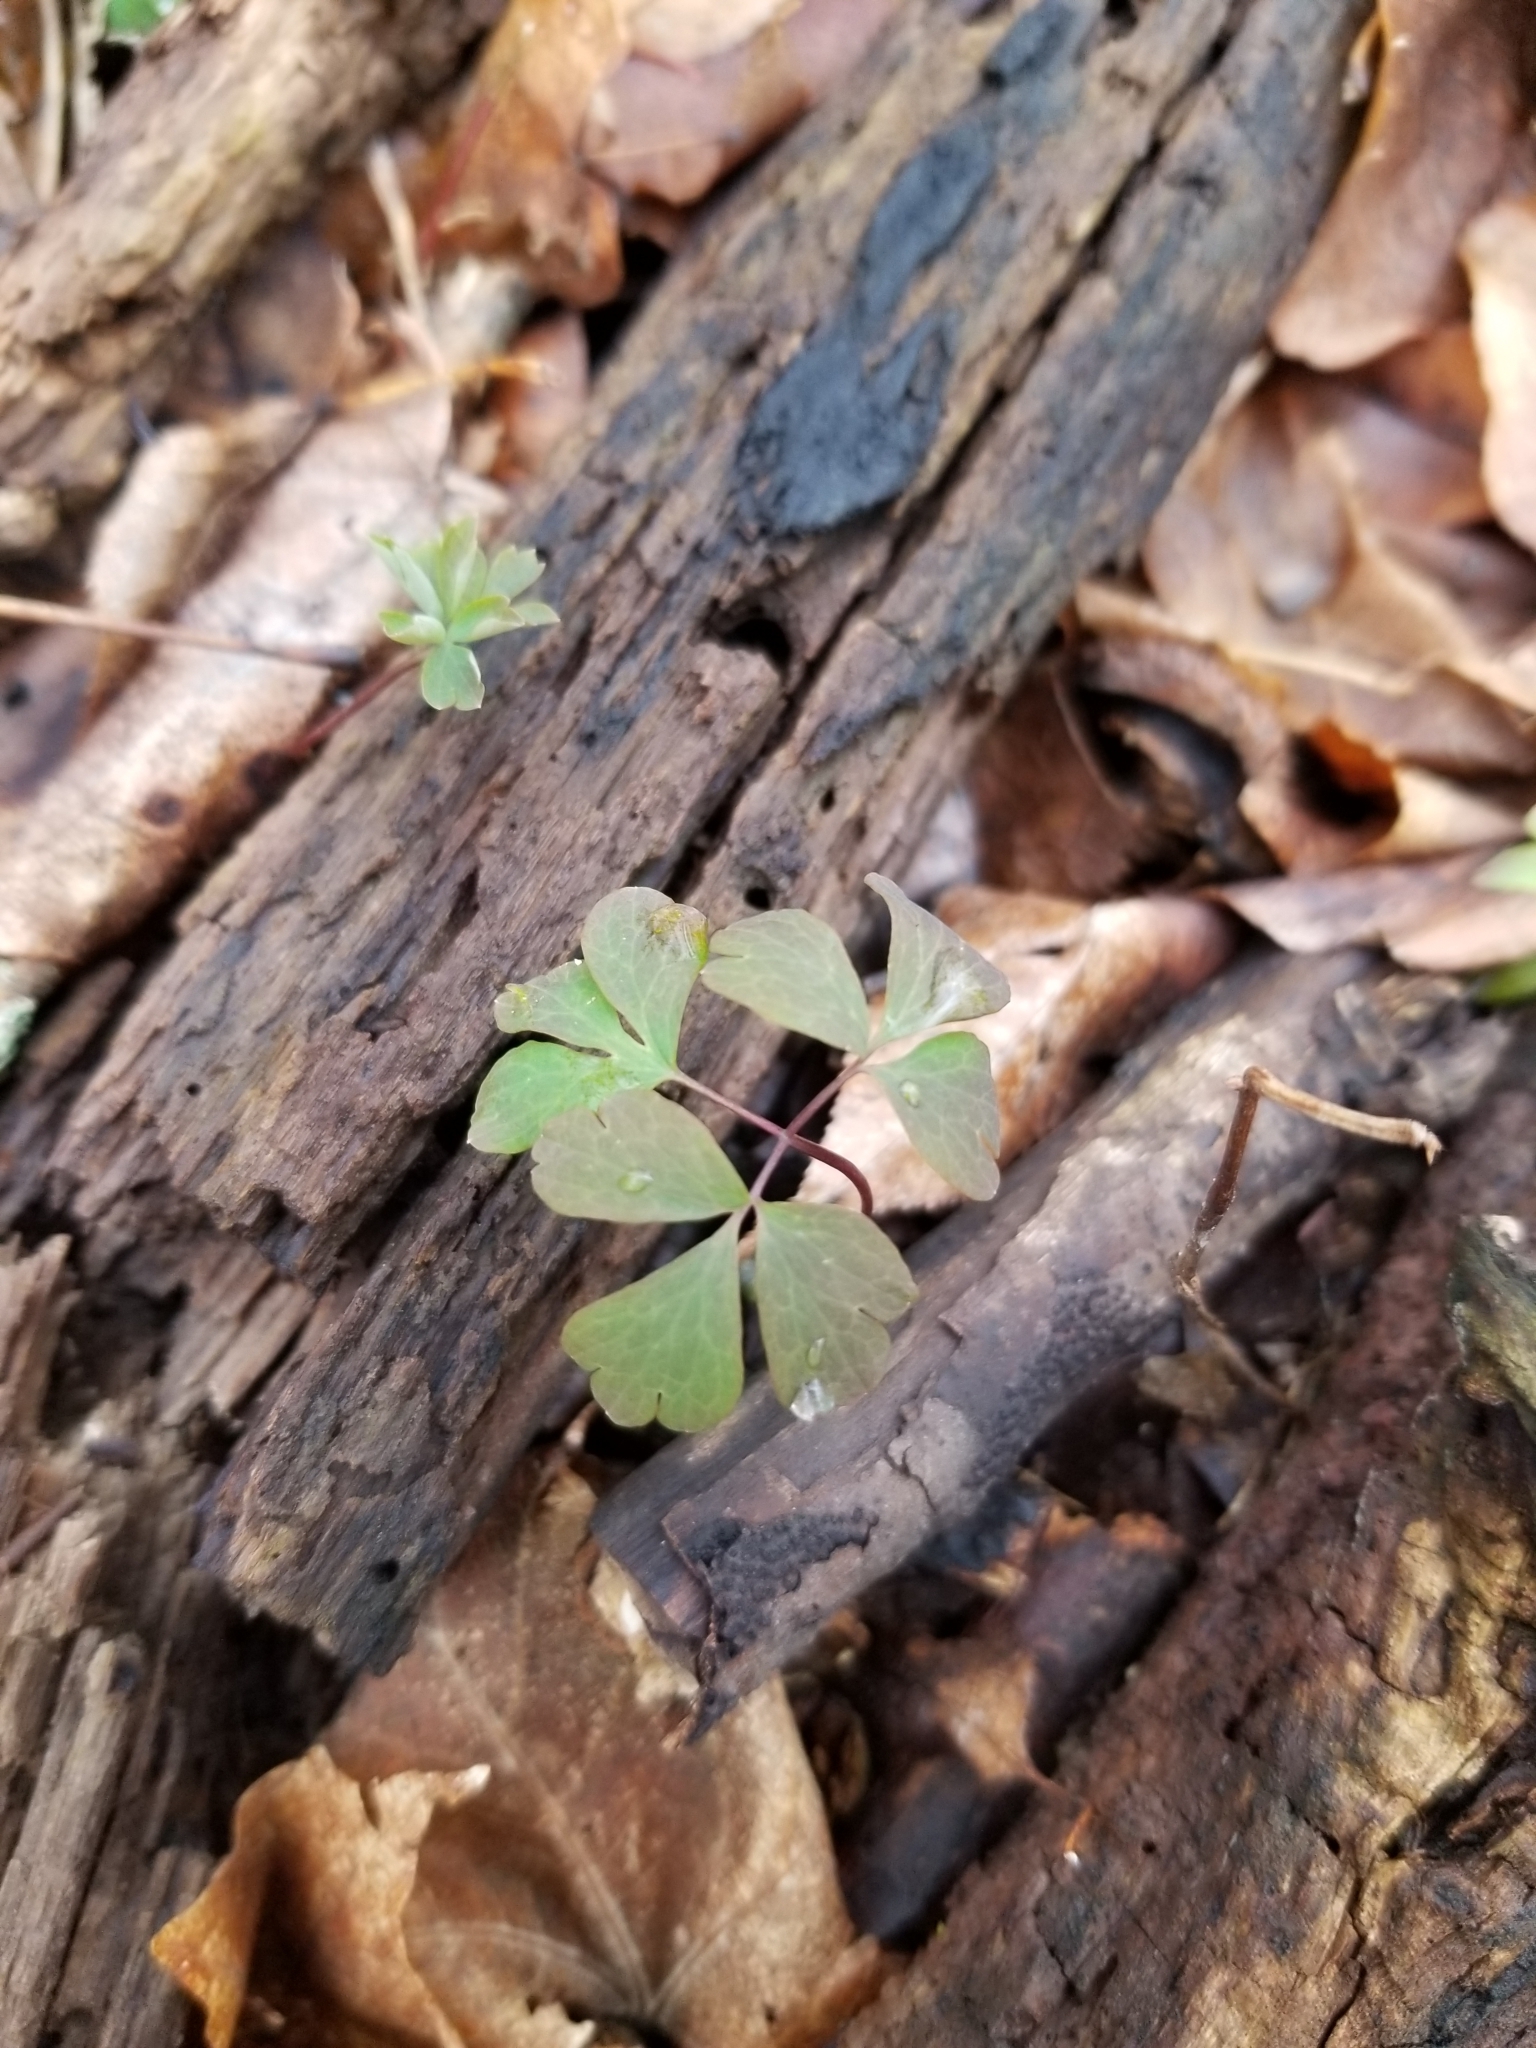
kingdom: Plantae
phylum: Tracheophyta
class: Magnoliopsida
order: Ranunculales
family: Ranunculaceae
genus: Enemion
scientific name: Enemion biternatum
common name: Eastern false rue-anemone
